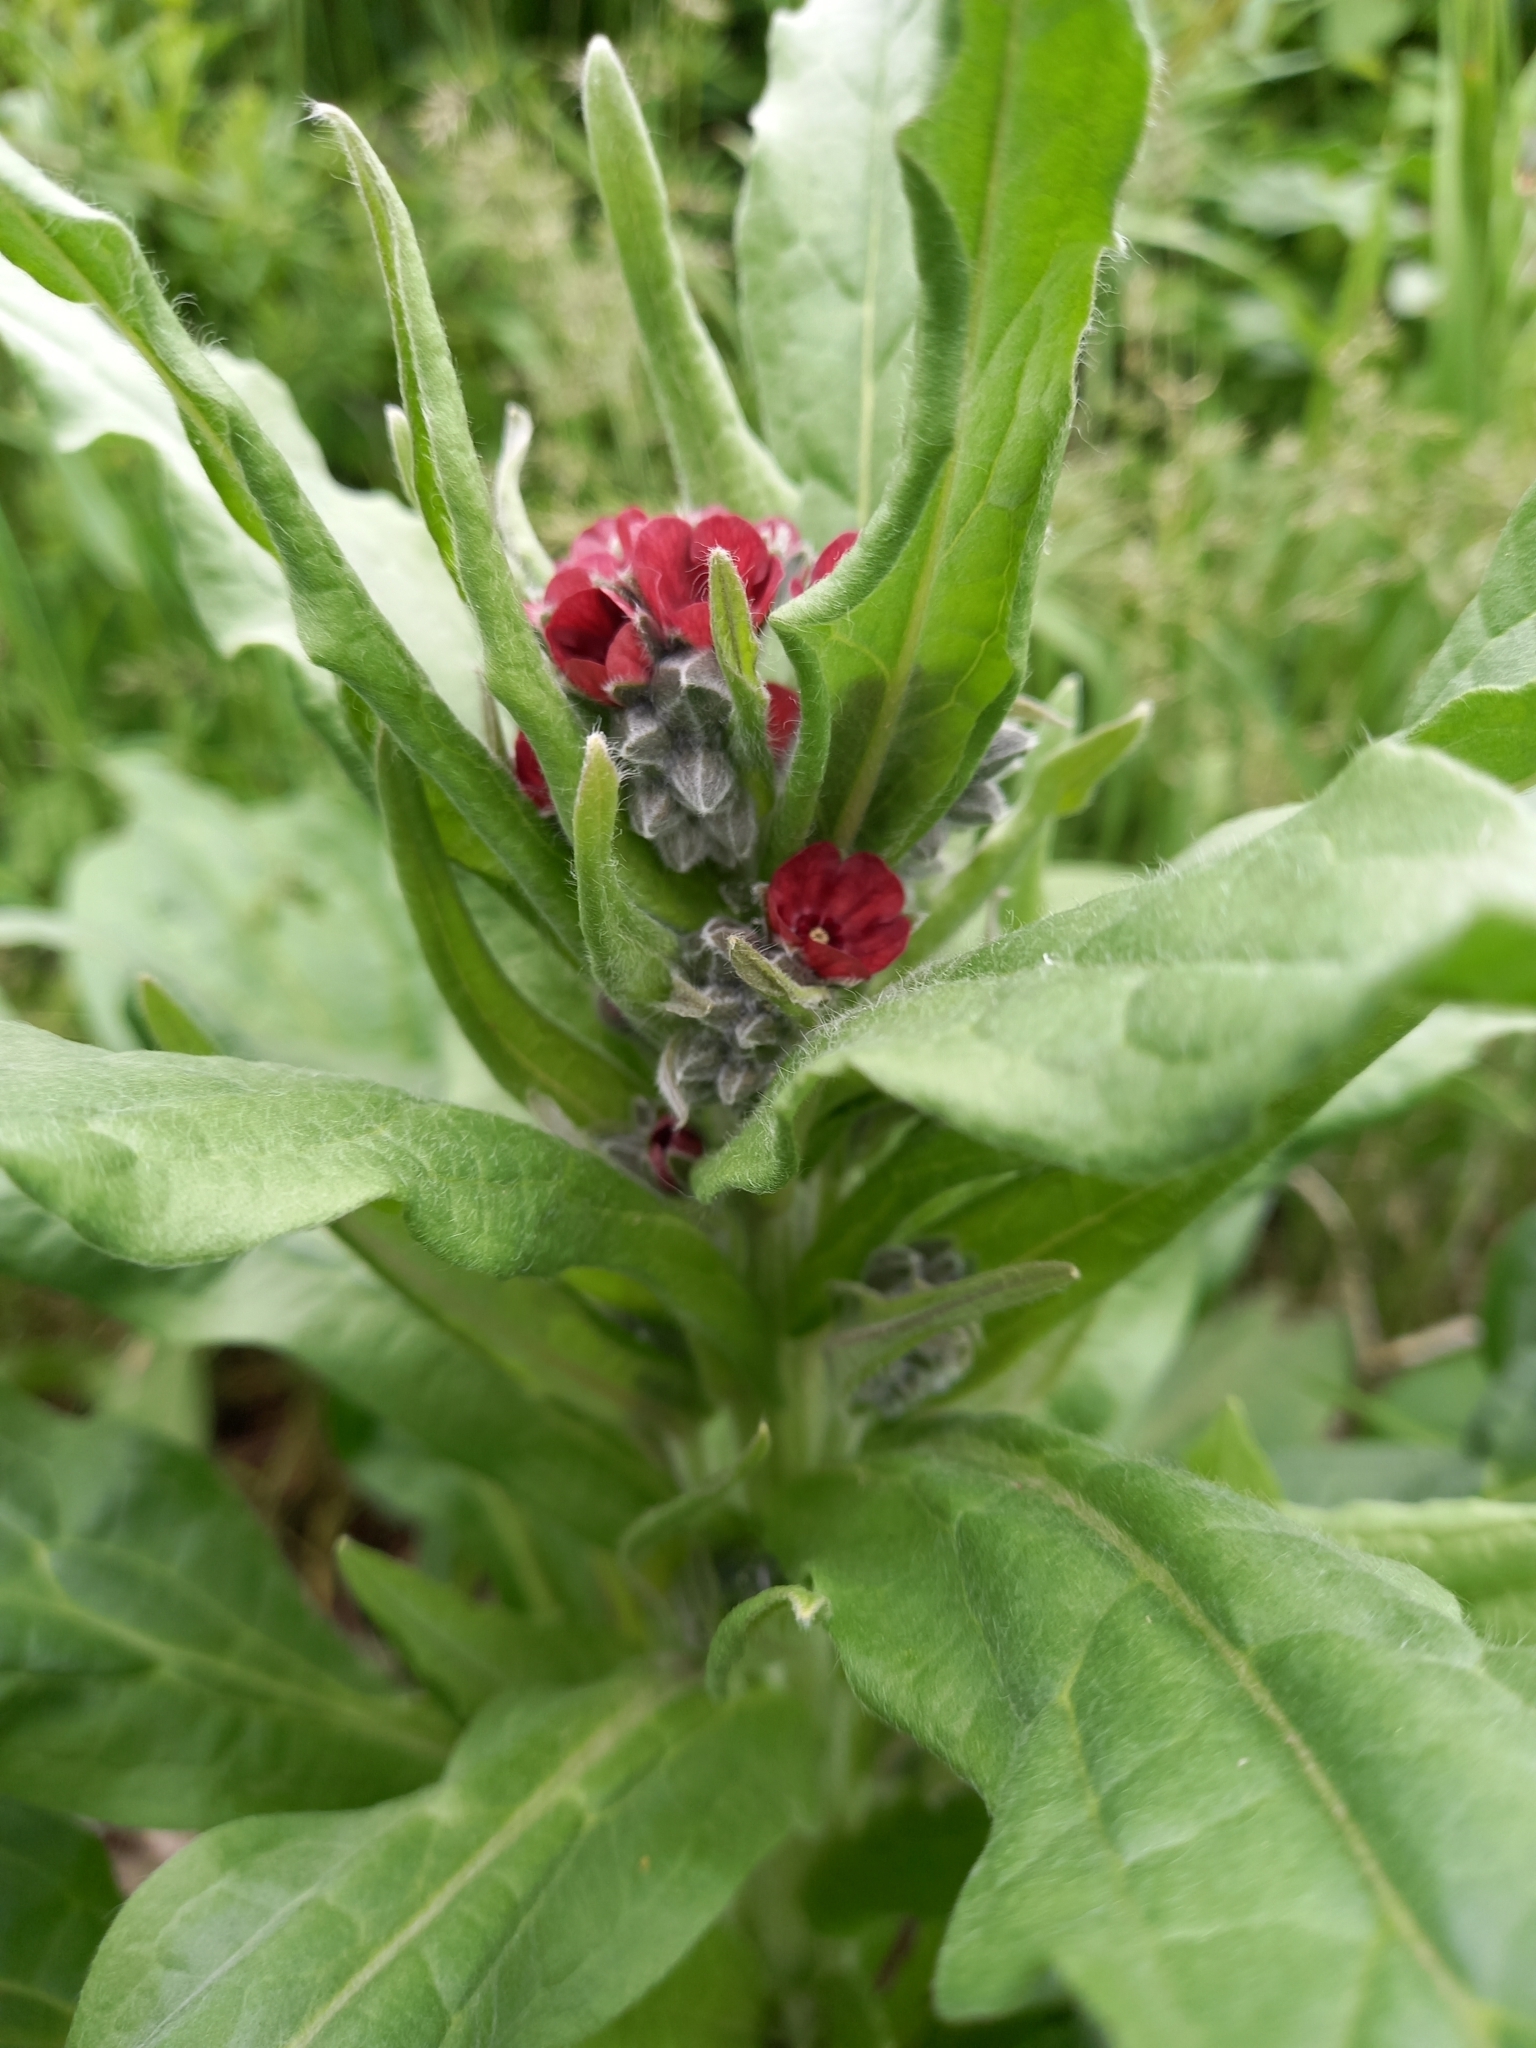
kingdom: Plantae
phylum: Tracheophyta
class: Magnoliopsida
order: Boraginales
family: Boraginaceae
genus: Cynoglossum
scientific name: Cynoglossum officinale
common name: Hound's-tongue
